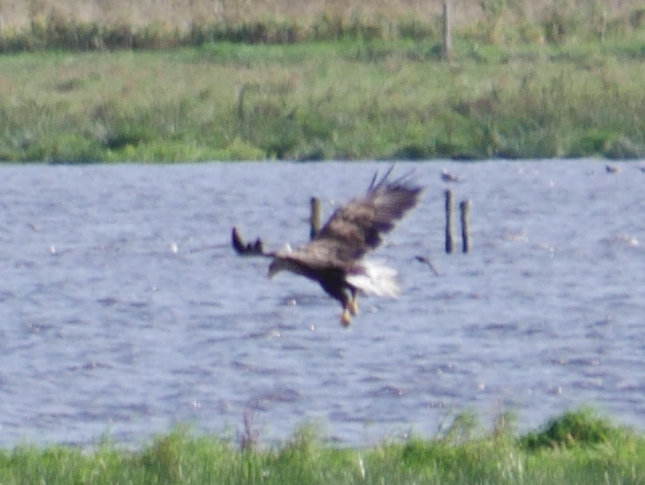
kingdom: Animalia
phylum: Chordata
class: Aves
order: Accipitriformes
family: Accipitridae
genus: Haliaeetus
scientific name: Haliaeetus albicilla
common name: White-tailed eagle
